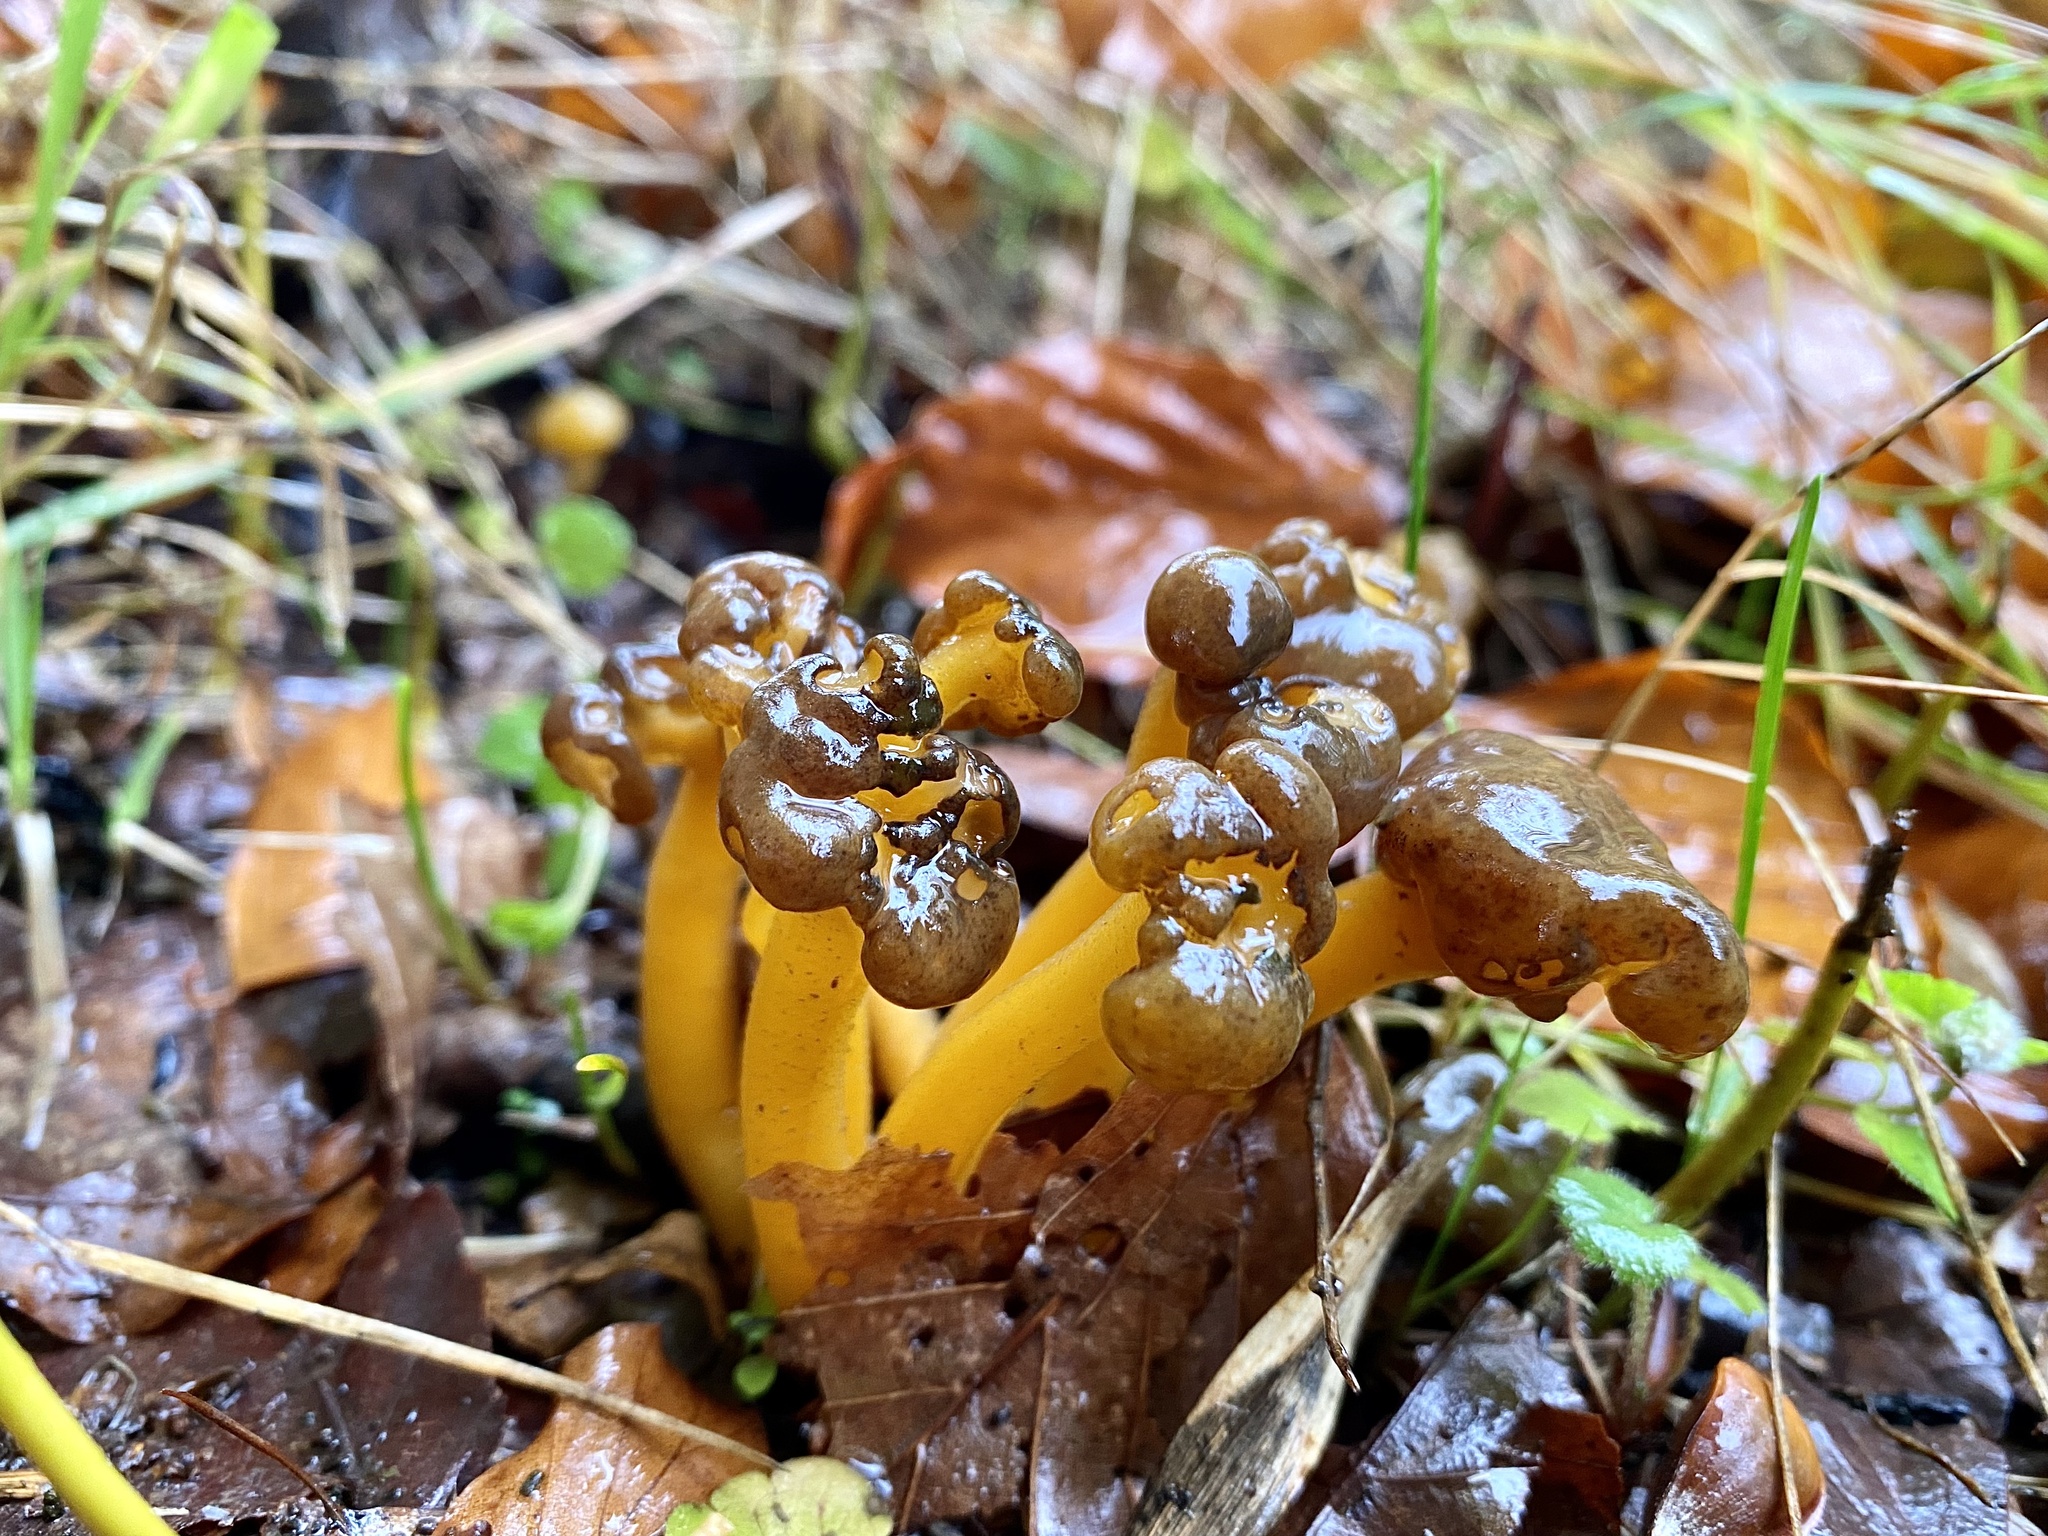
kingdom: Fungi
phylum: Ascomycota
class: Leotiomycetes
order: Leotiales
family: Leotiaceae
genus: Leotia
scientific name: Leotia lubrica
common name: Jellybaby
